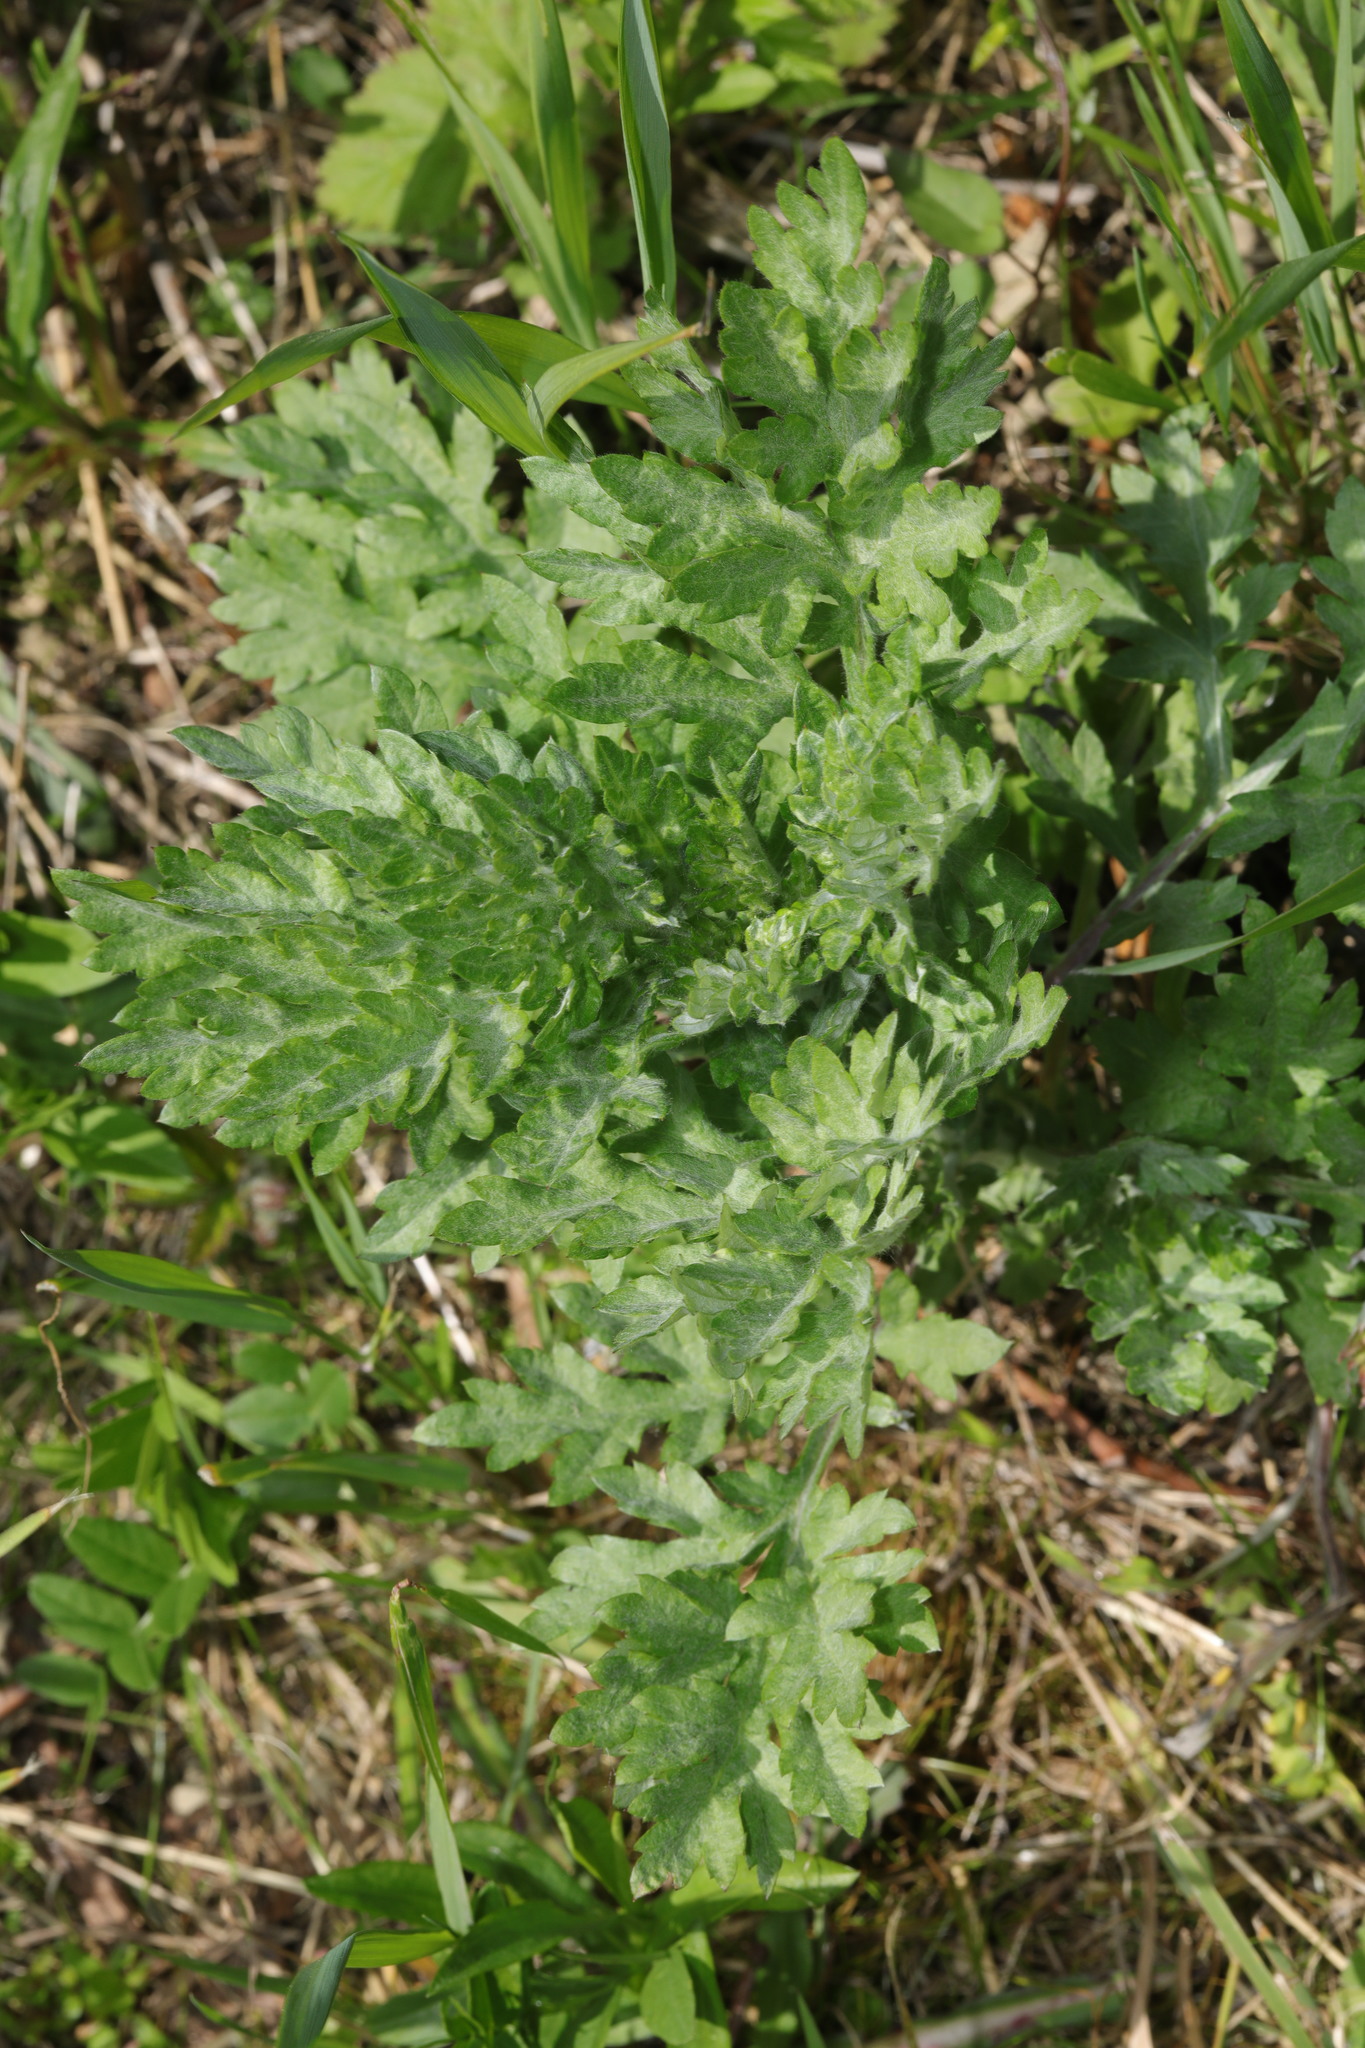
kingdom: Plantae
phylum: Tracheophyta
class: Magnoliopsida
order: Asterales
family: Asteraceae
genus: Artemisia
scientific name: Artemisia vulgaris
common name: Mugwort
